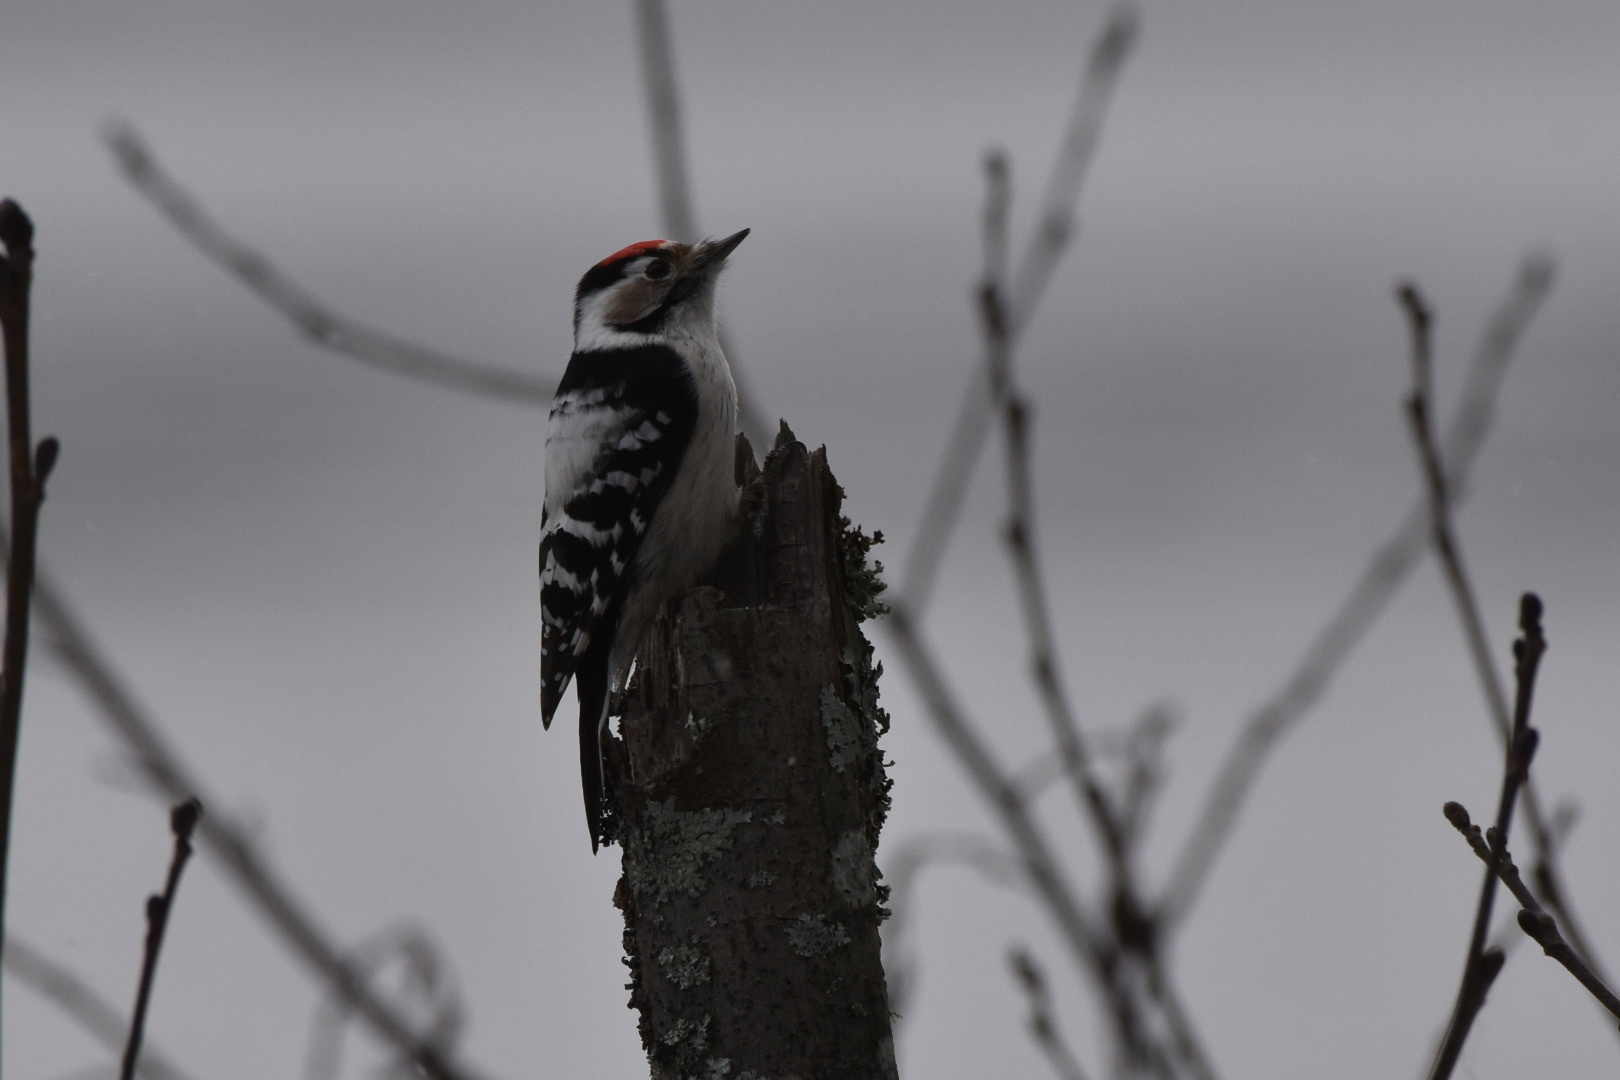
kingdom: Animalia
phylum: Chordata
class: Aves
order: Piciformes
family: Picidae
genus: Dryobates
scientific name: Dryobates minor
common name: Lesser spotted woodpecker
